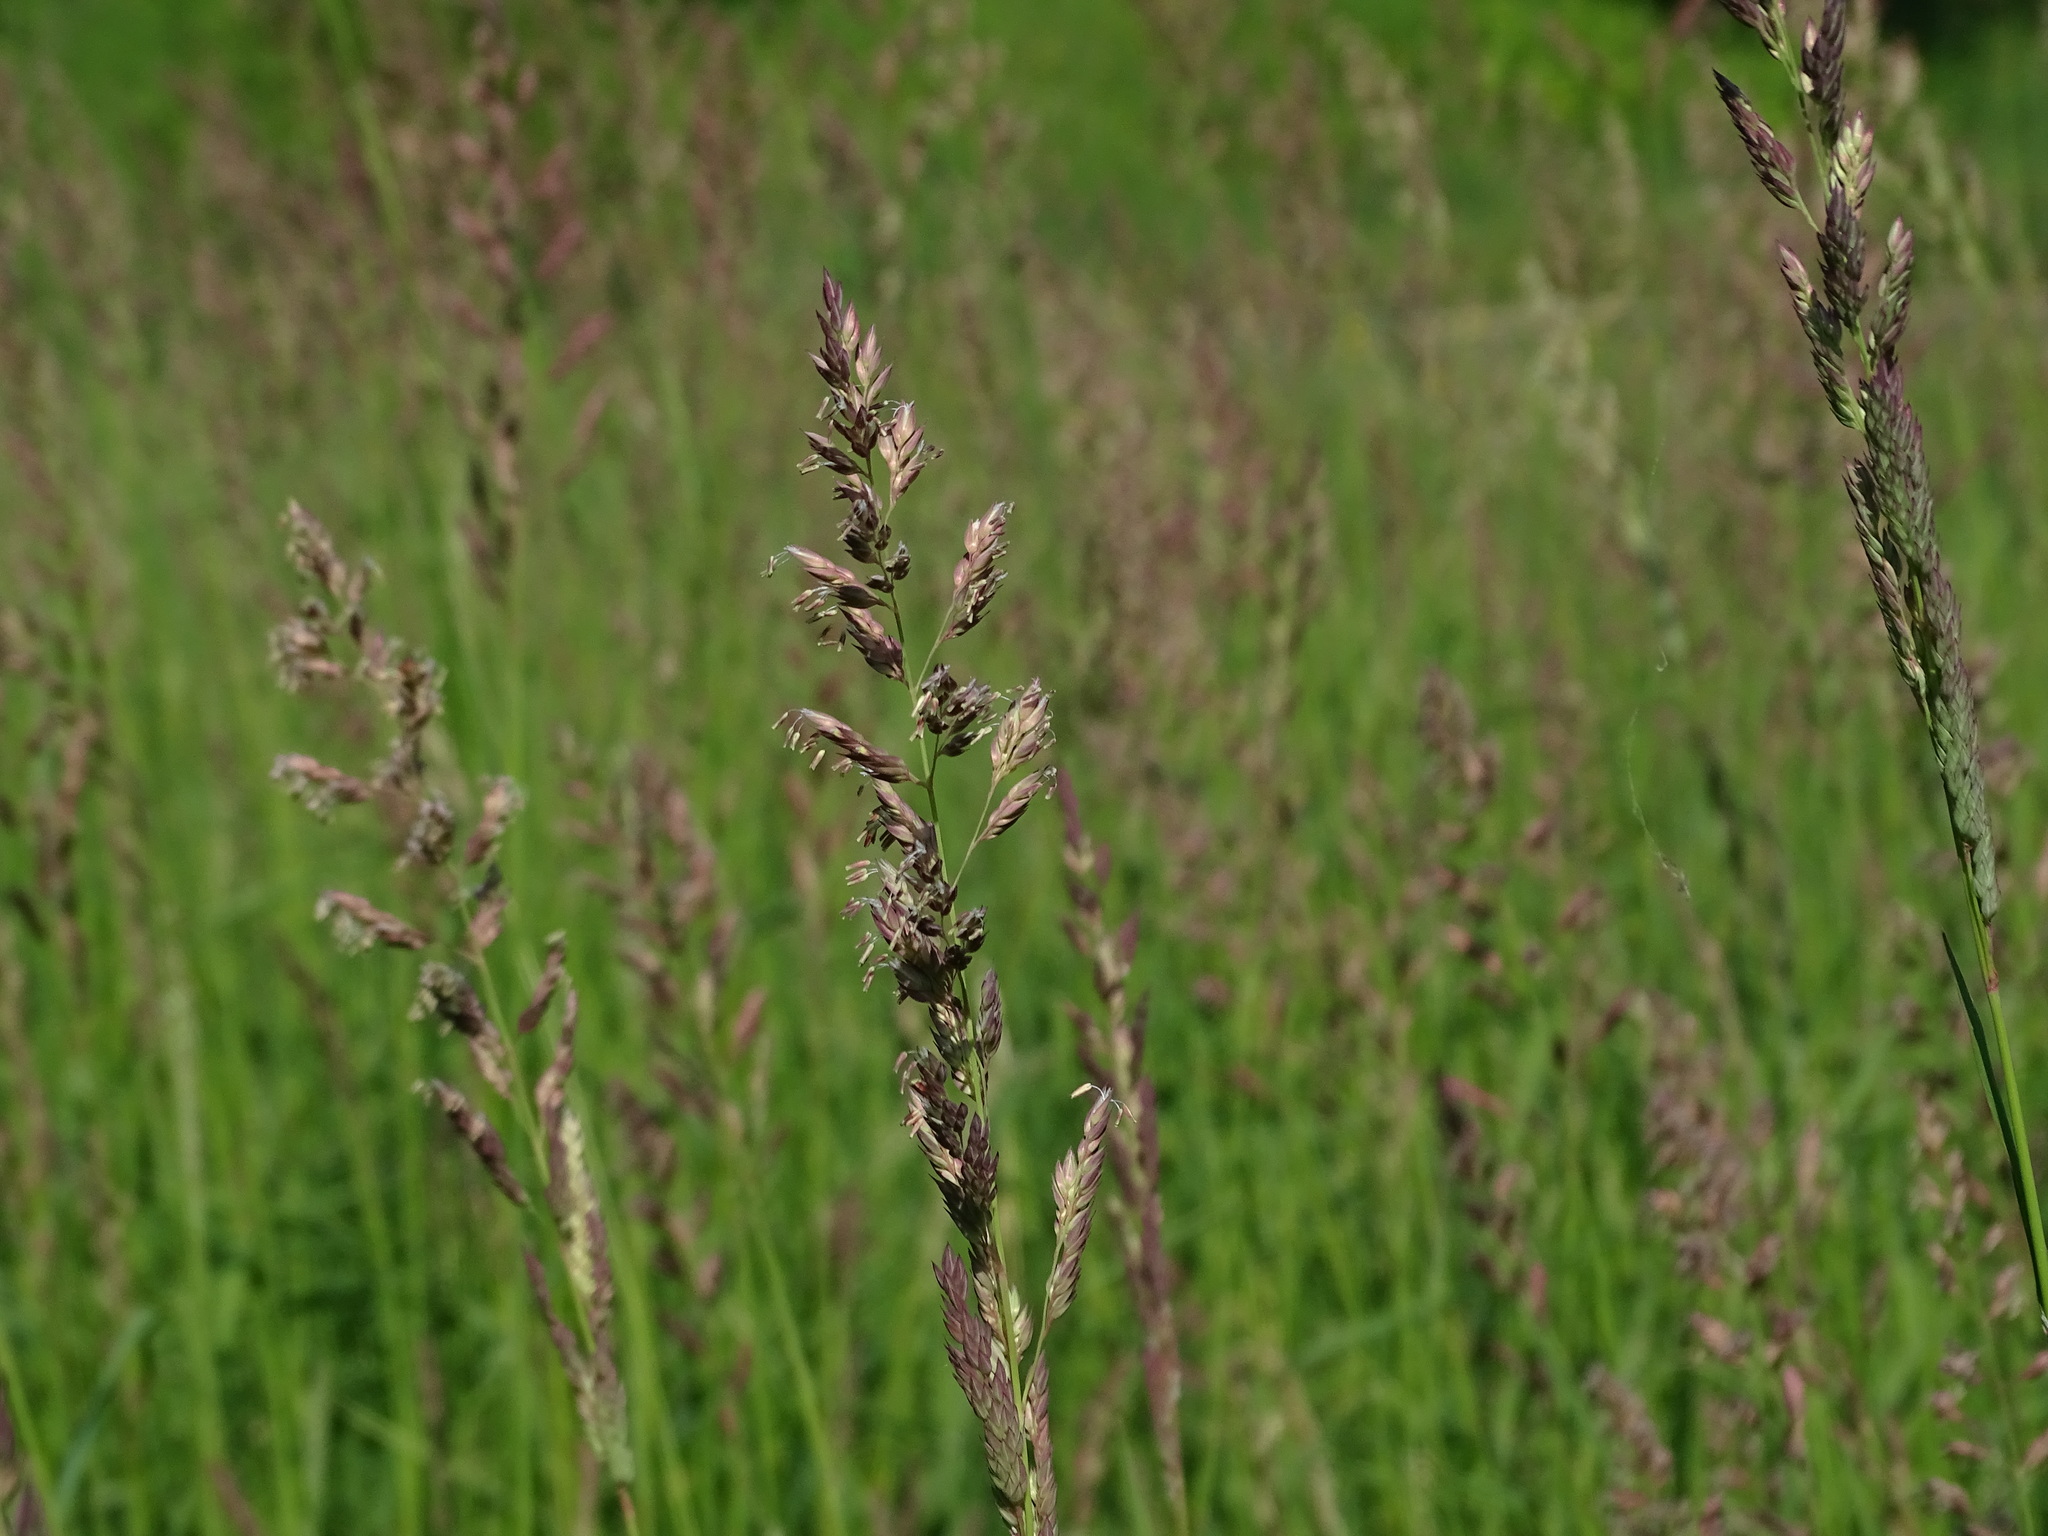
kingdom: Plantae
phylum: Tracheophyta
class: Liliopsida
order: Poales
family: Poaceae
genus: Phalaris
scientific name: Phalaris arundinacea
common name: Reed canary-grass
